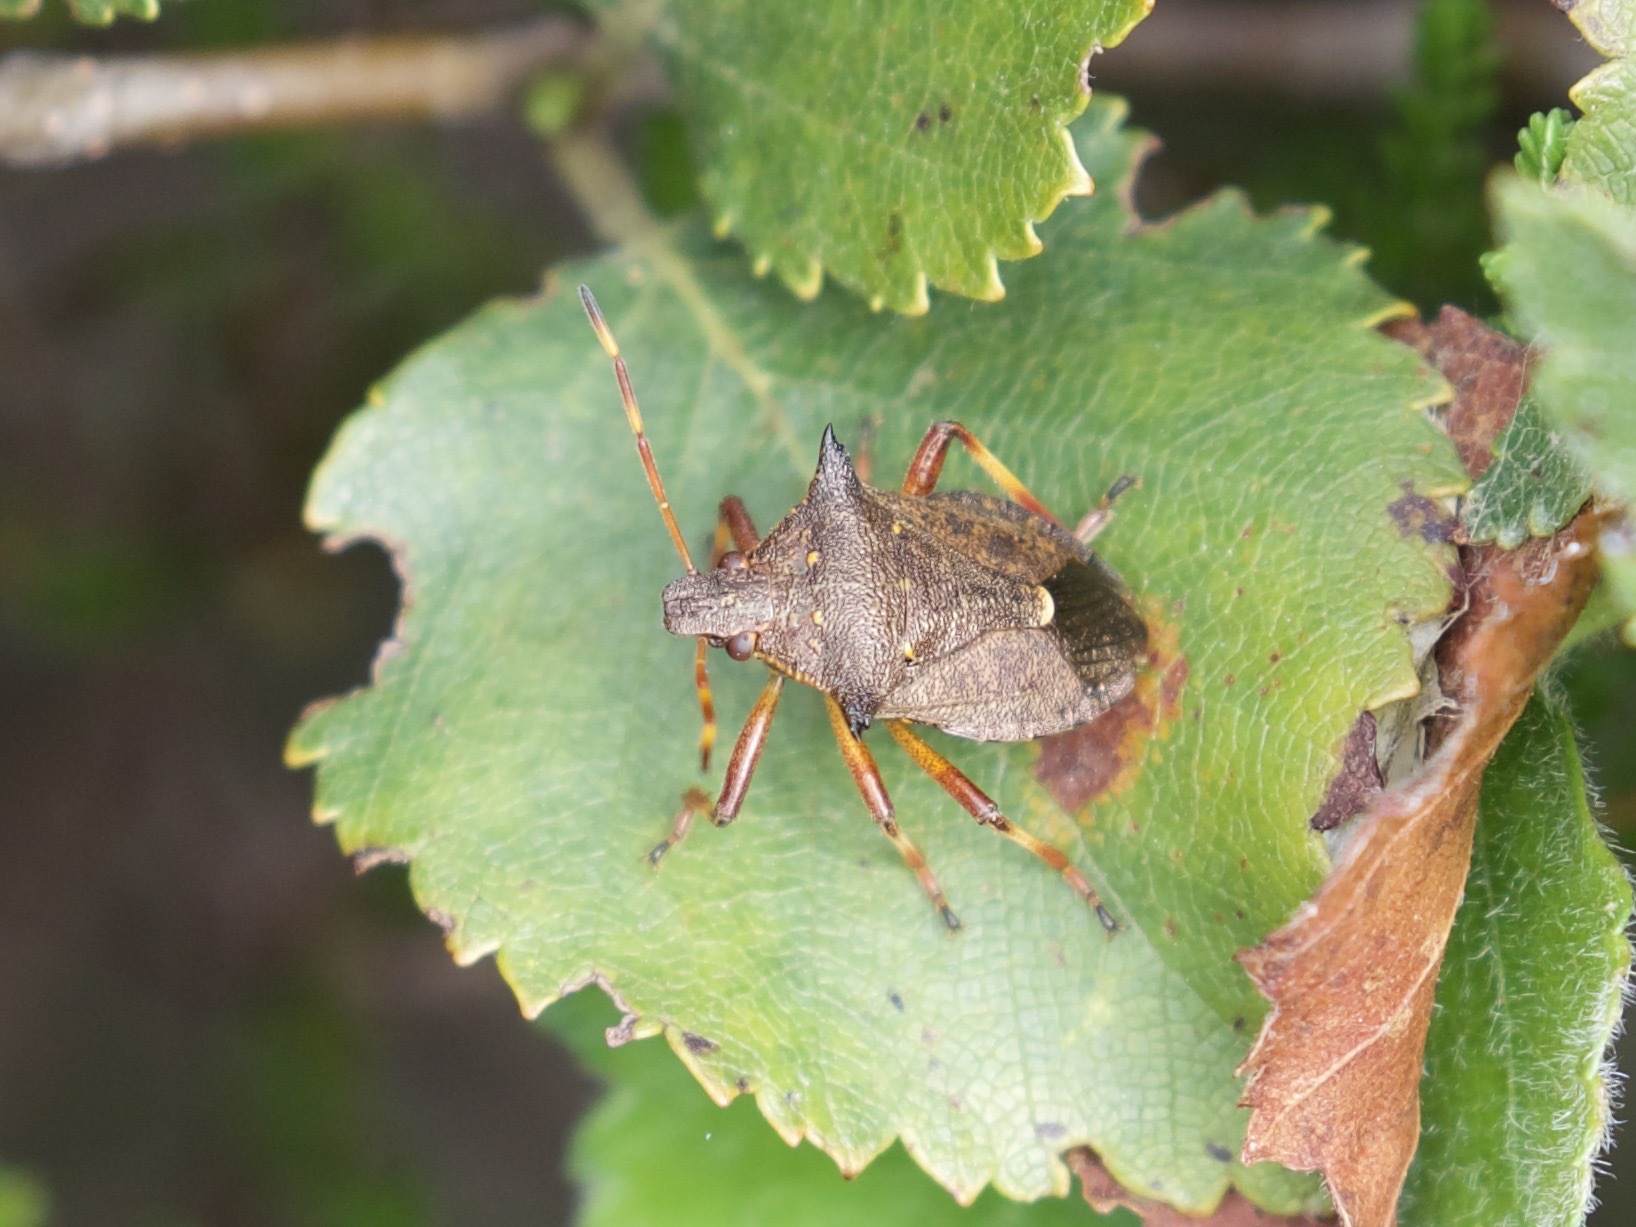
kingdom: Animalia
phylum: Arthropoda
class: Insecta
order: Hemiptera
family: Pentatomidae
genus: Picromerus
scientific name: Picromerus bidens
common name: Spiked shieldbug
